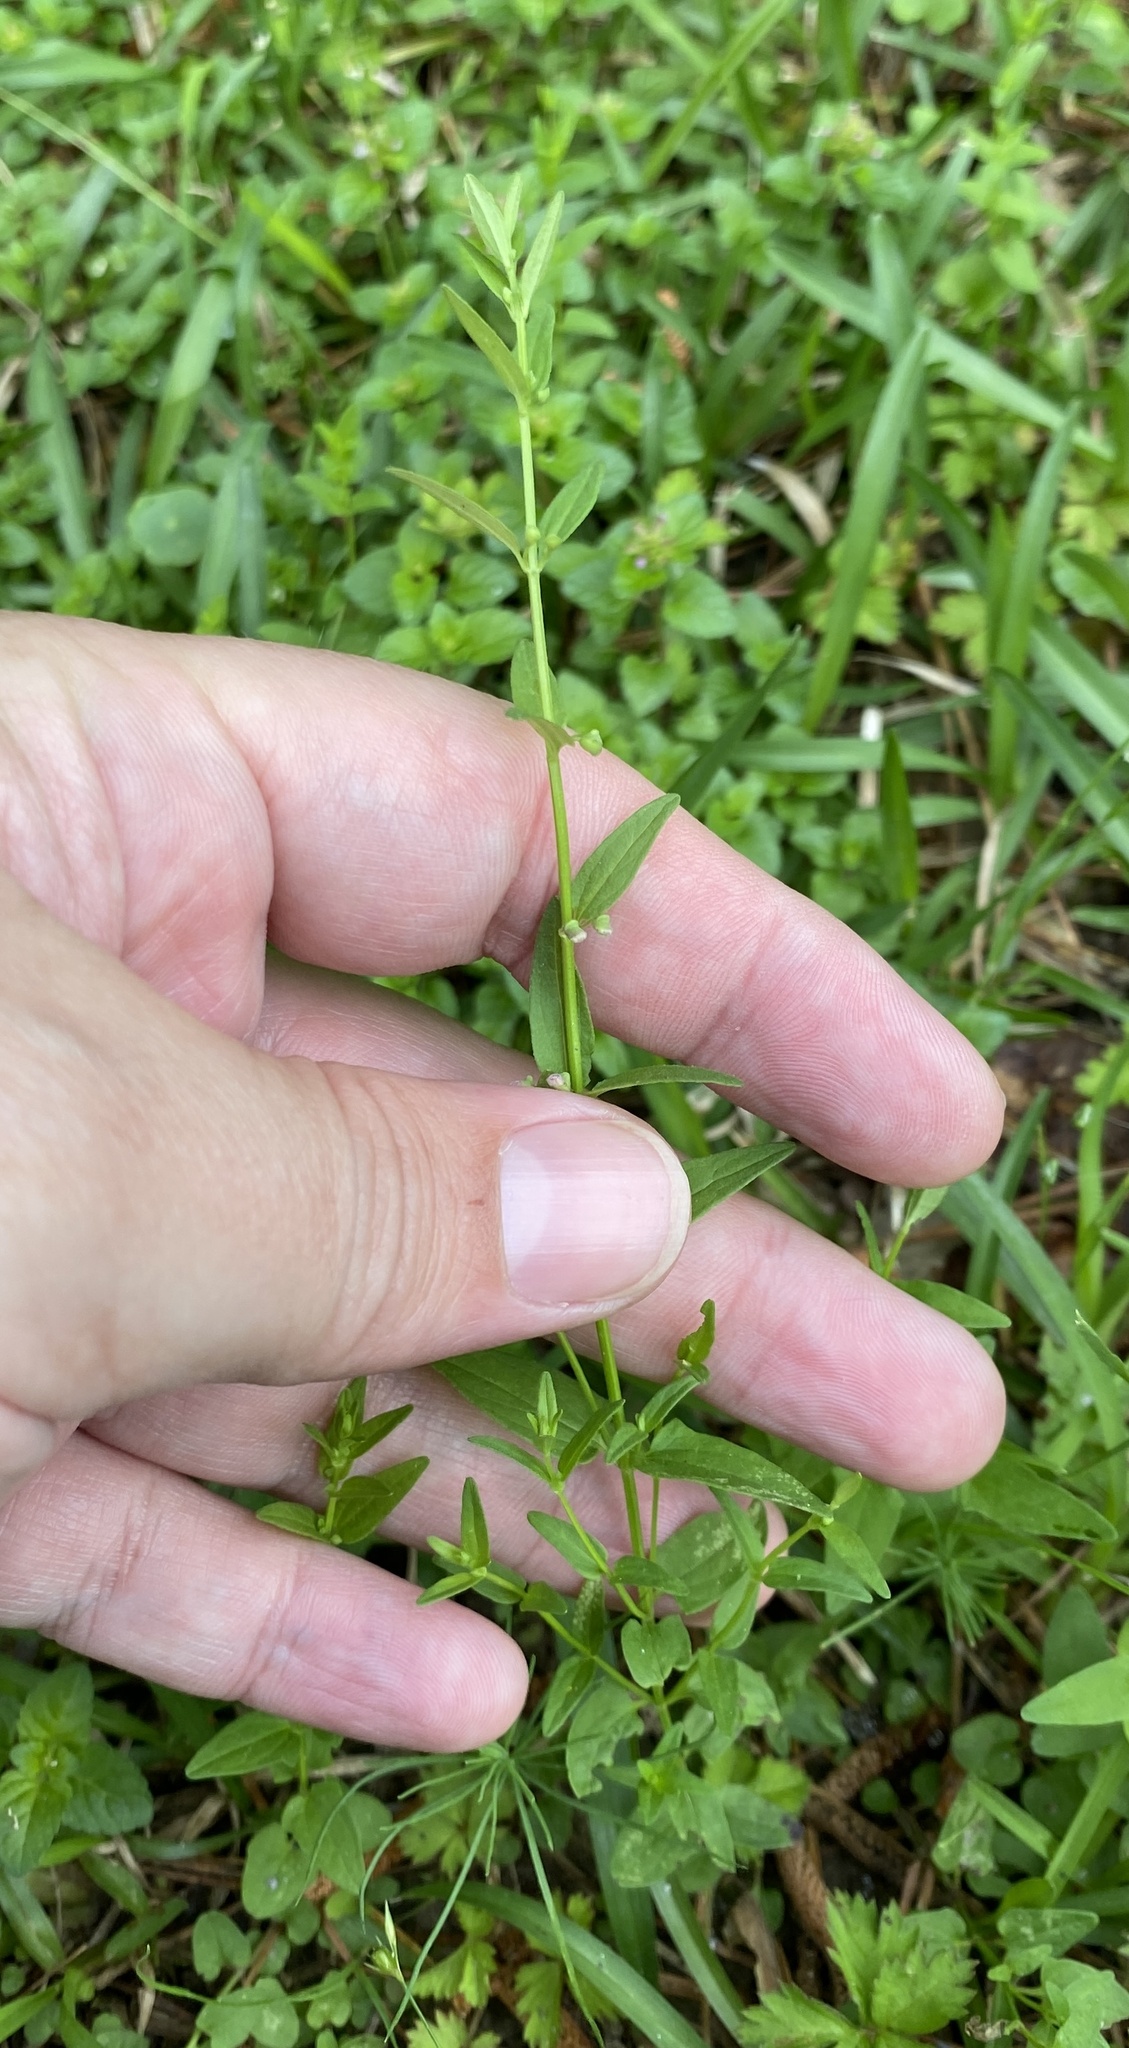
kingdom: Plantae
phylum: Tracheophyta
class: Magnoliopsida
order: Lamiales
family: Lamiaceae
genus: Scutellaria
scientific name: Scutellaria racemosa
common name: South american skullcap
